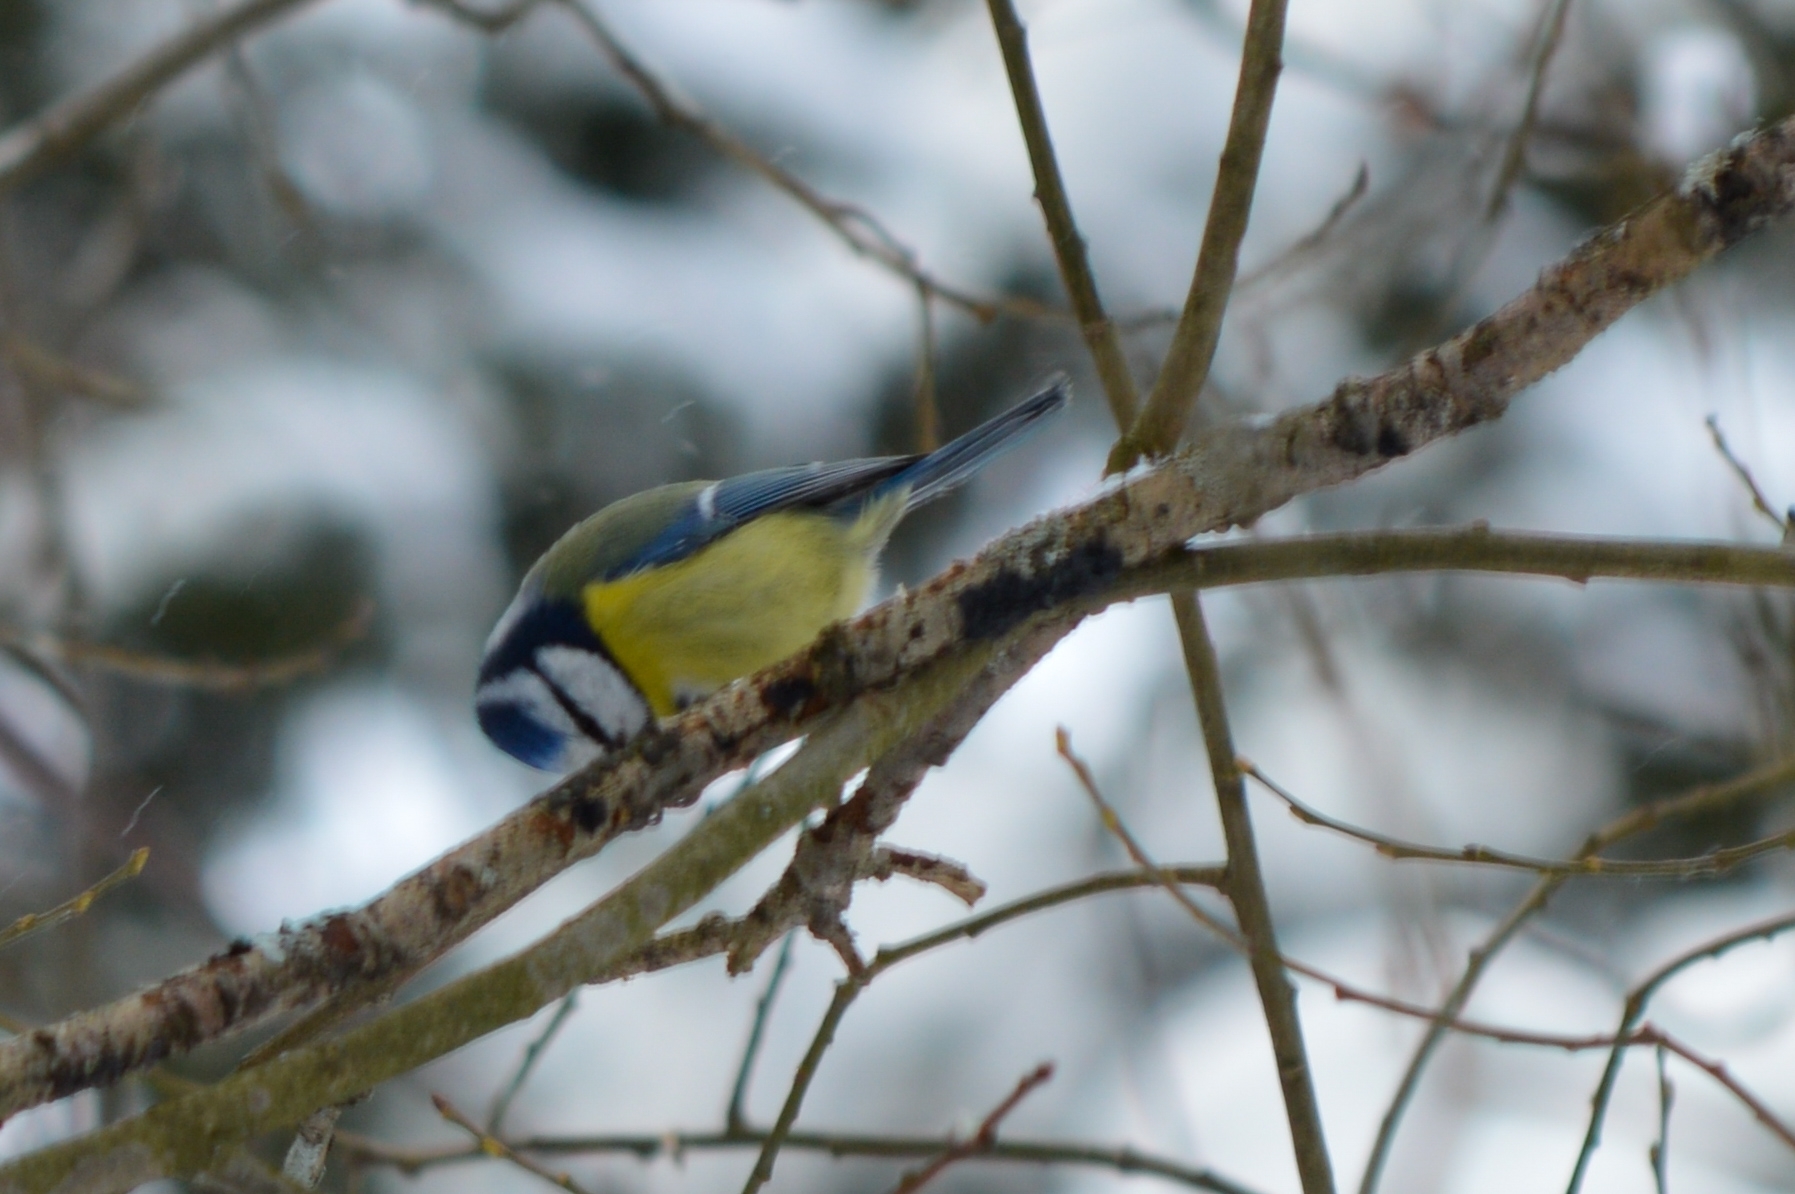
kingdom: Animalia
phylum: Chordata
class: Aves
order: Passeriformes
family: Paridae
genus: Cyanistes
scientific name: Cyanistes caeruleus
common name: Eurasian blue tit
